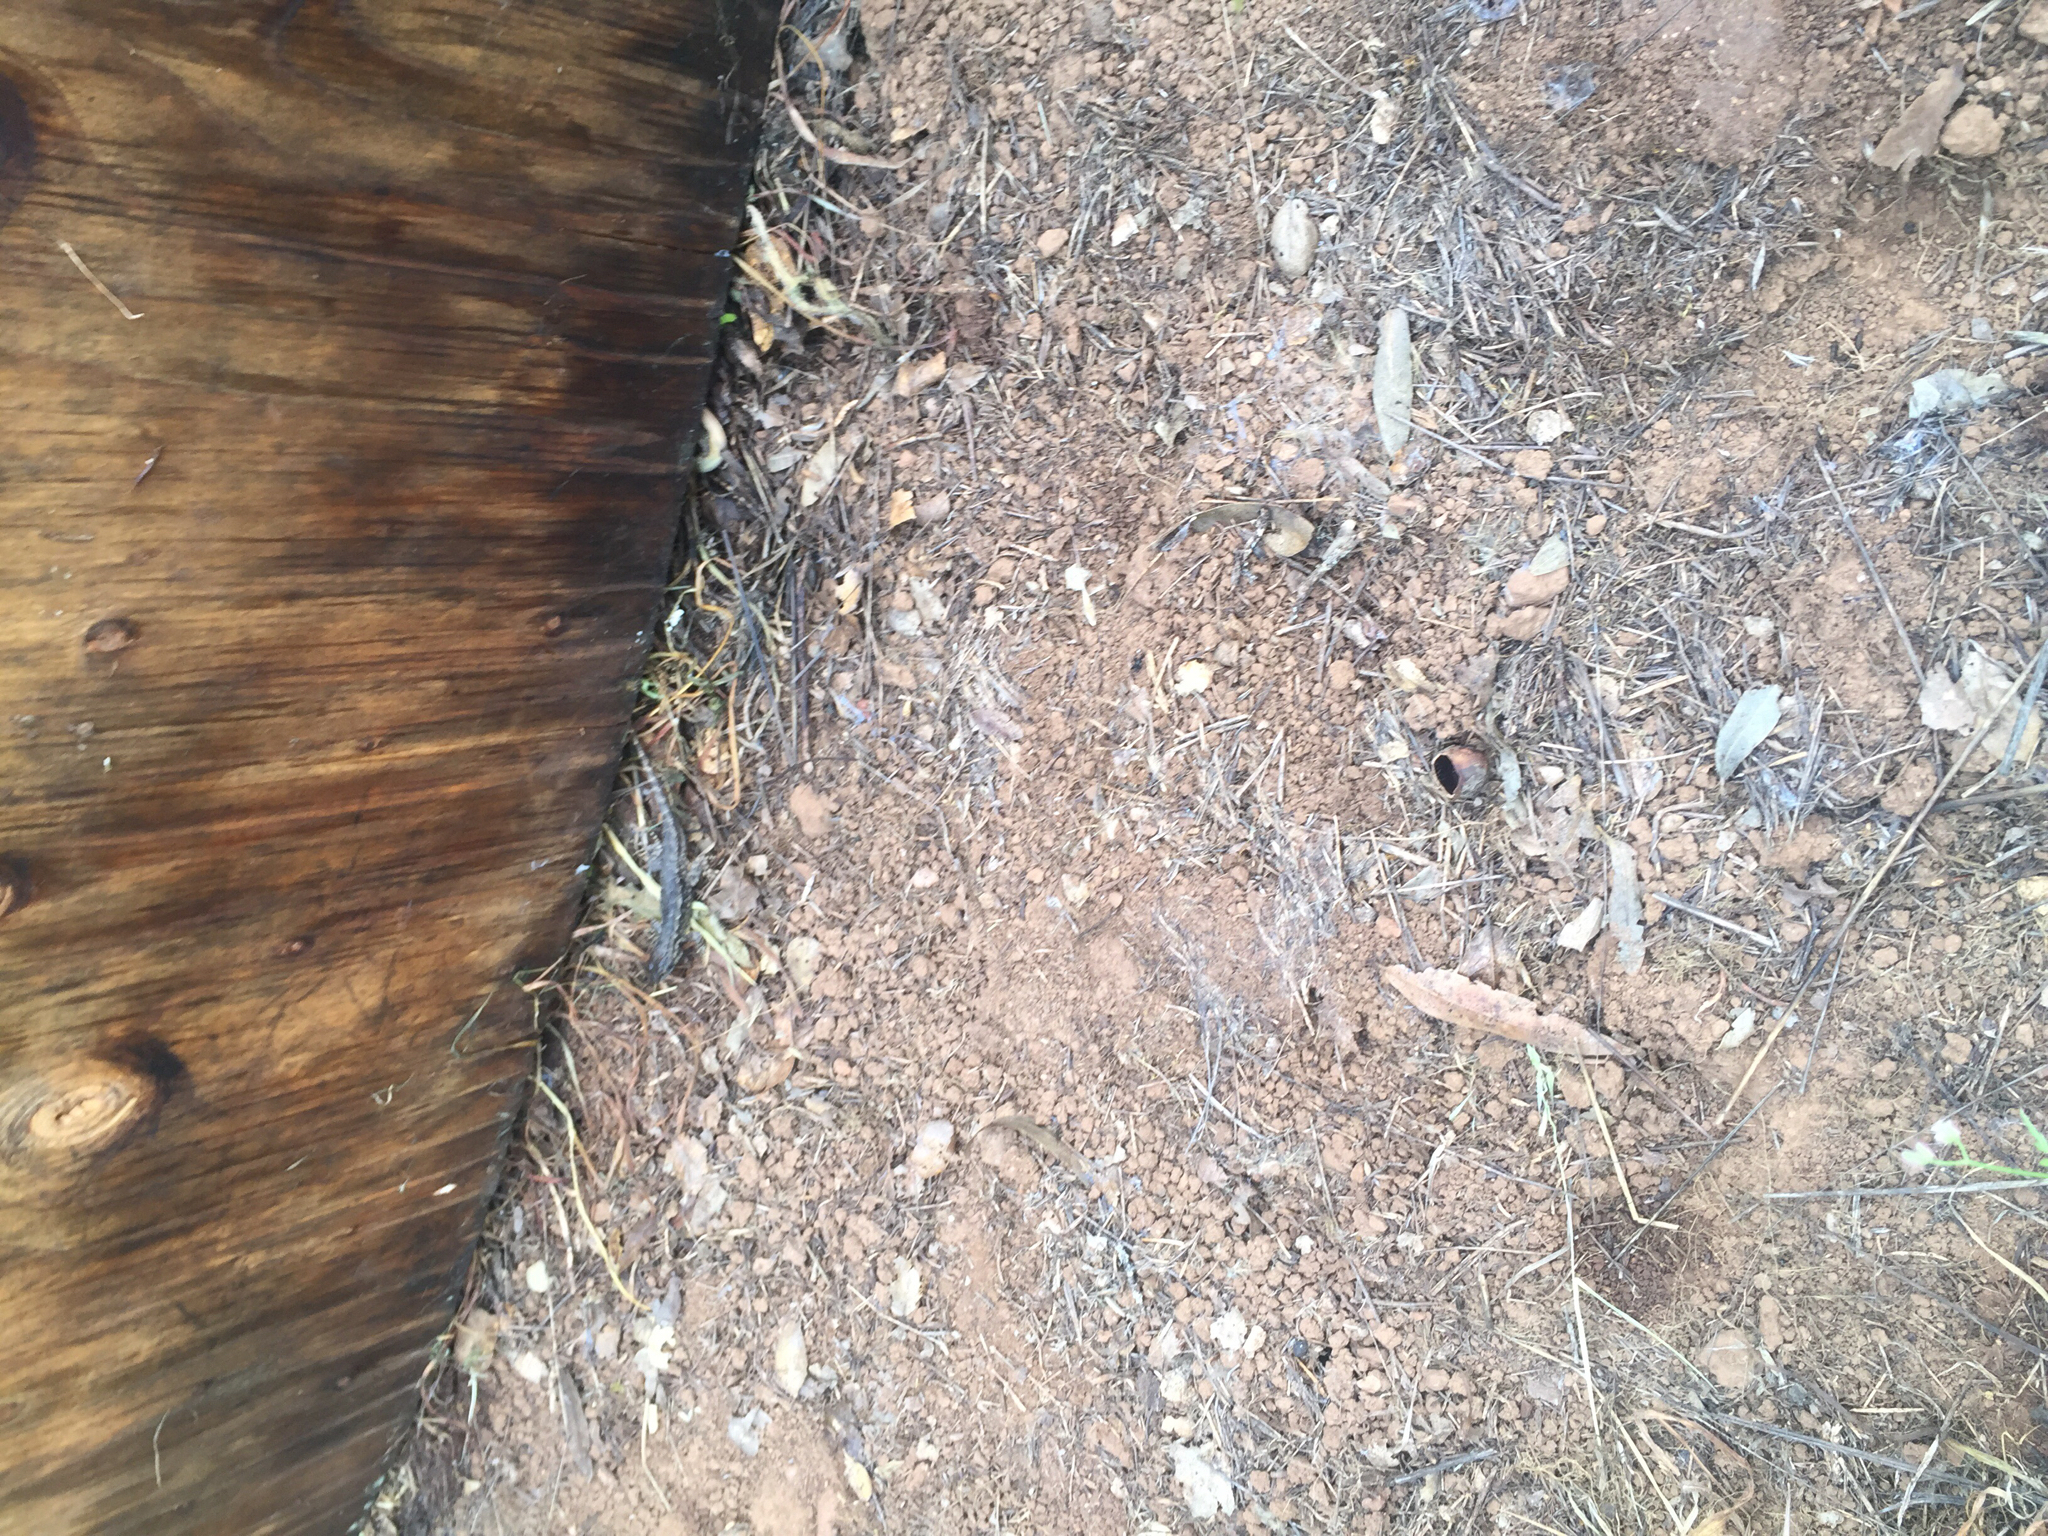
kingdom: Animalia
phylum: Chordata
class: Squamata
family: Phrynosomatidae
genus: Sceloporus
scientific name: Sceloporus occidentalis
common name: Western fence lizard
